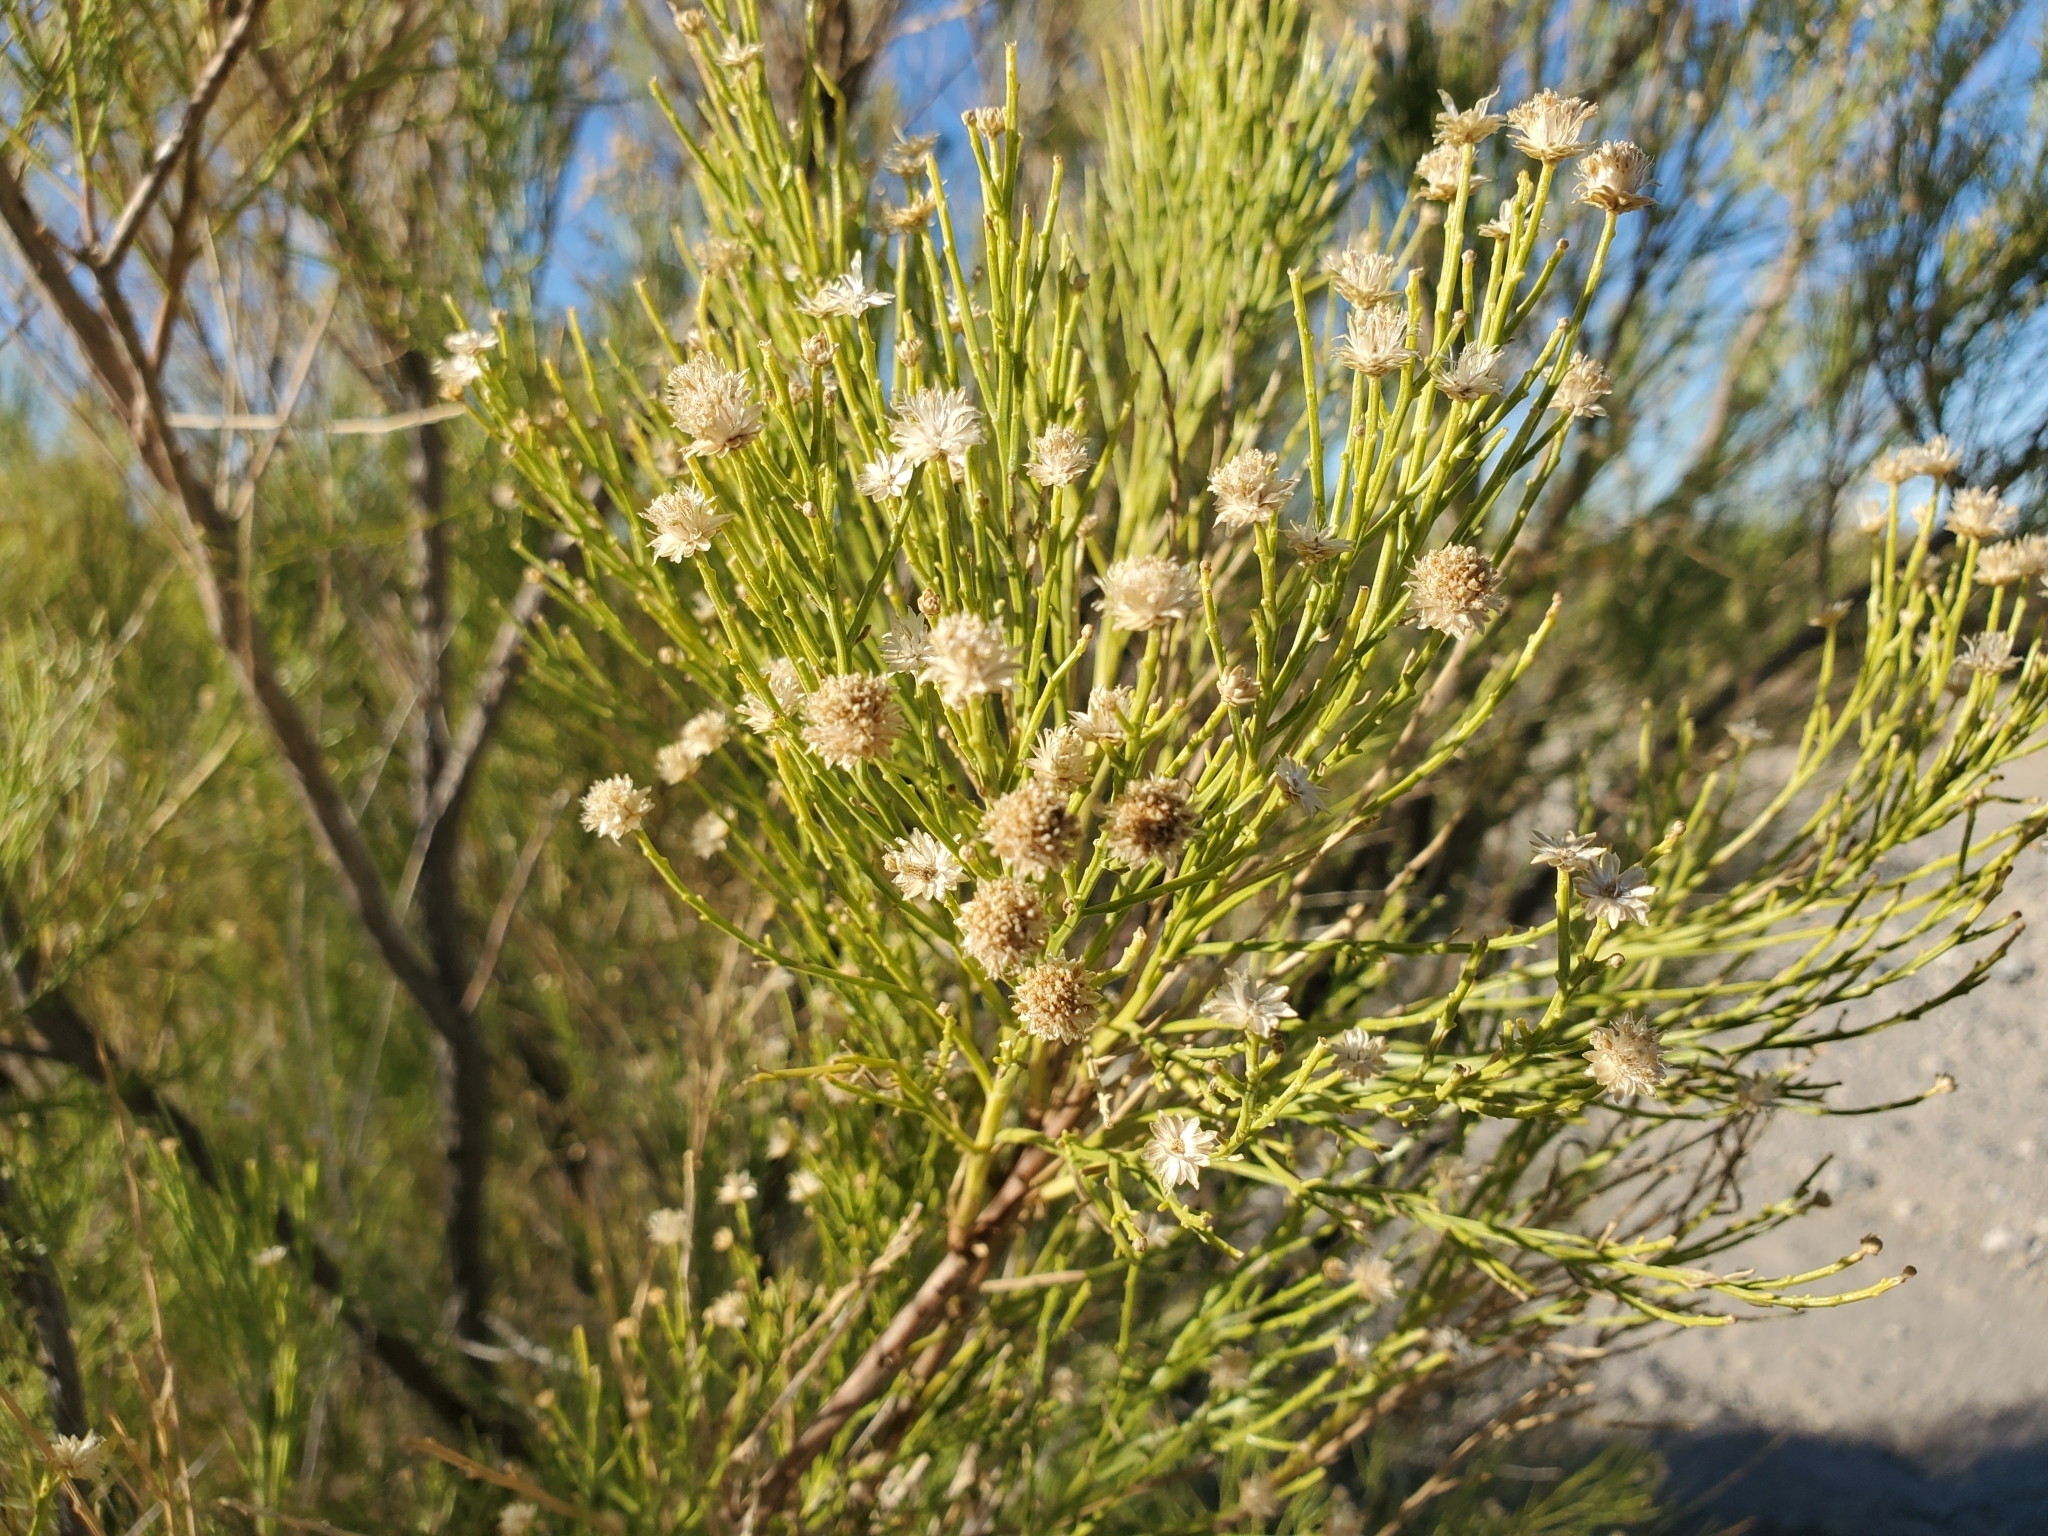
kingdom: Plantae
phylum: Tracheophyta
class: Magnoliopsida
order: Asterales
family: Asteraceae
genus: Baccharis
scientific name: Baccharis sarothroides
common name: Desert-broom
